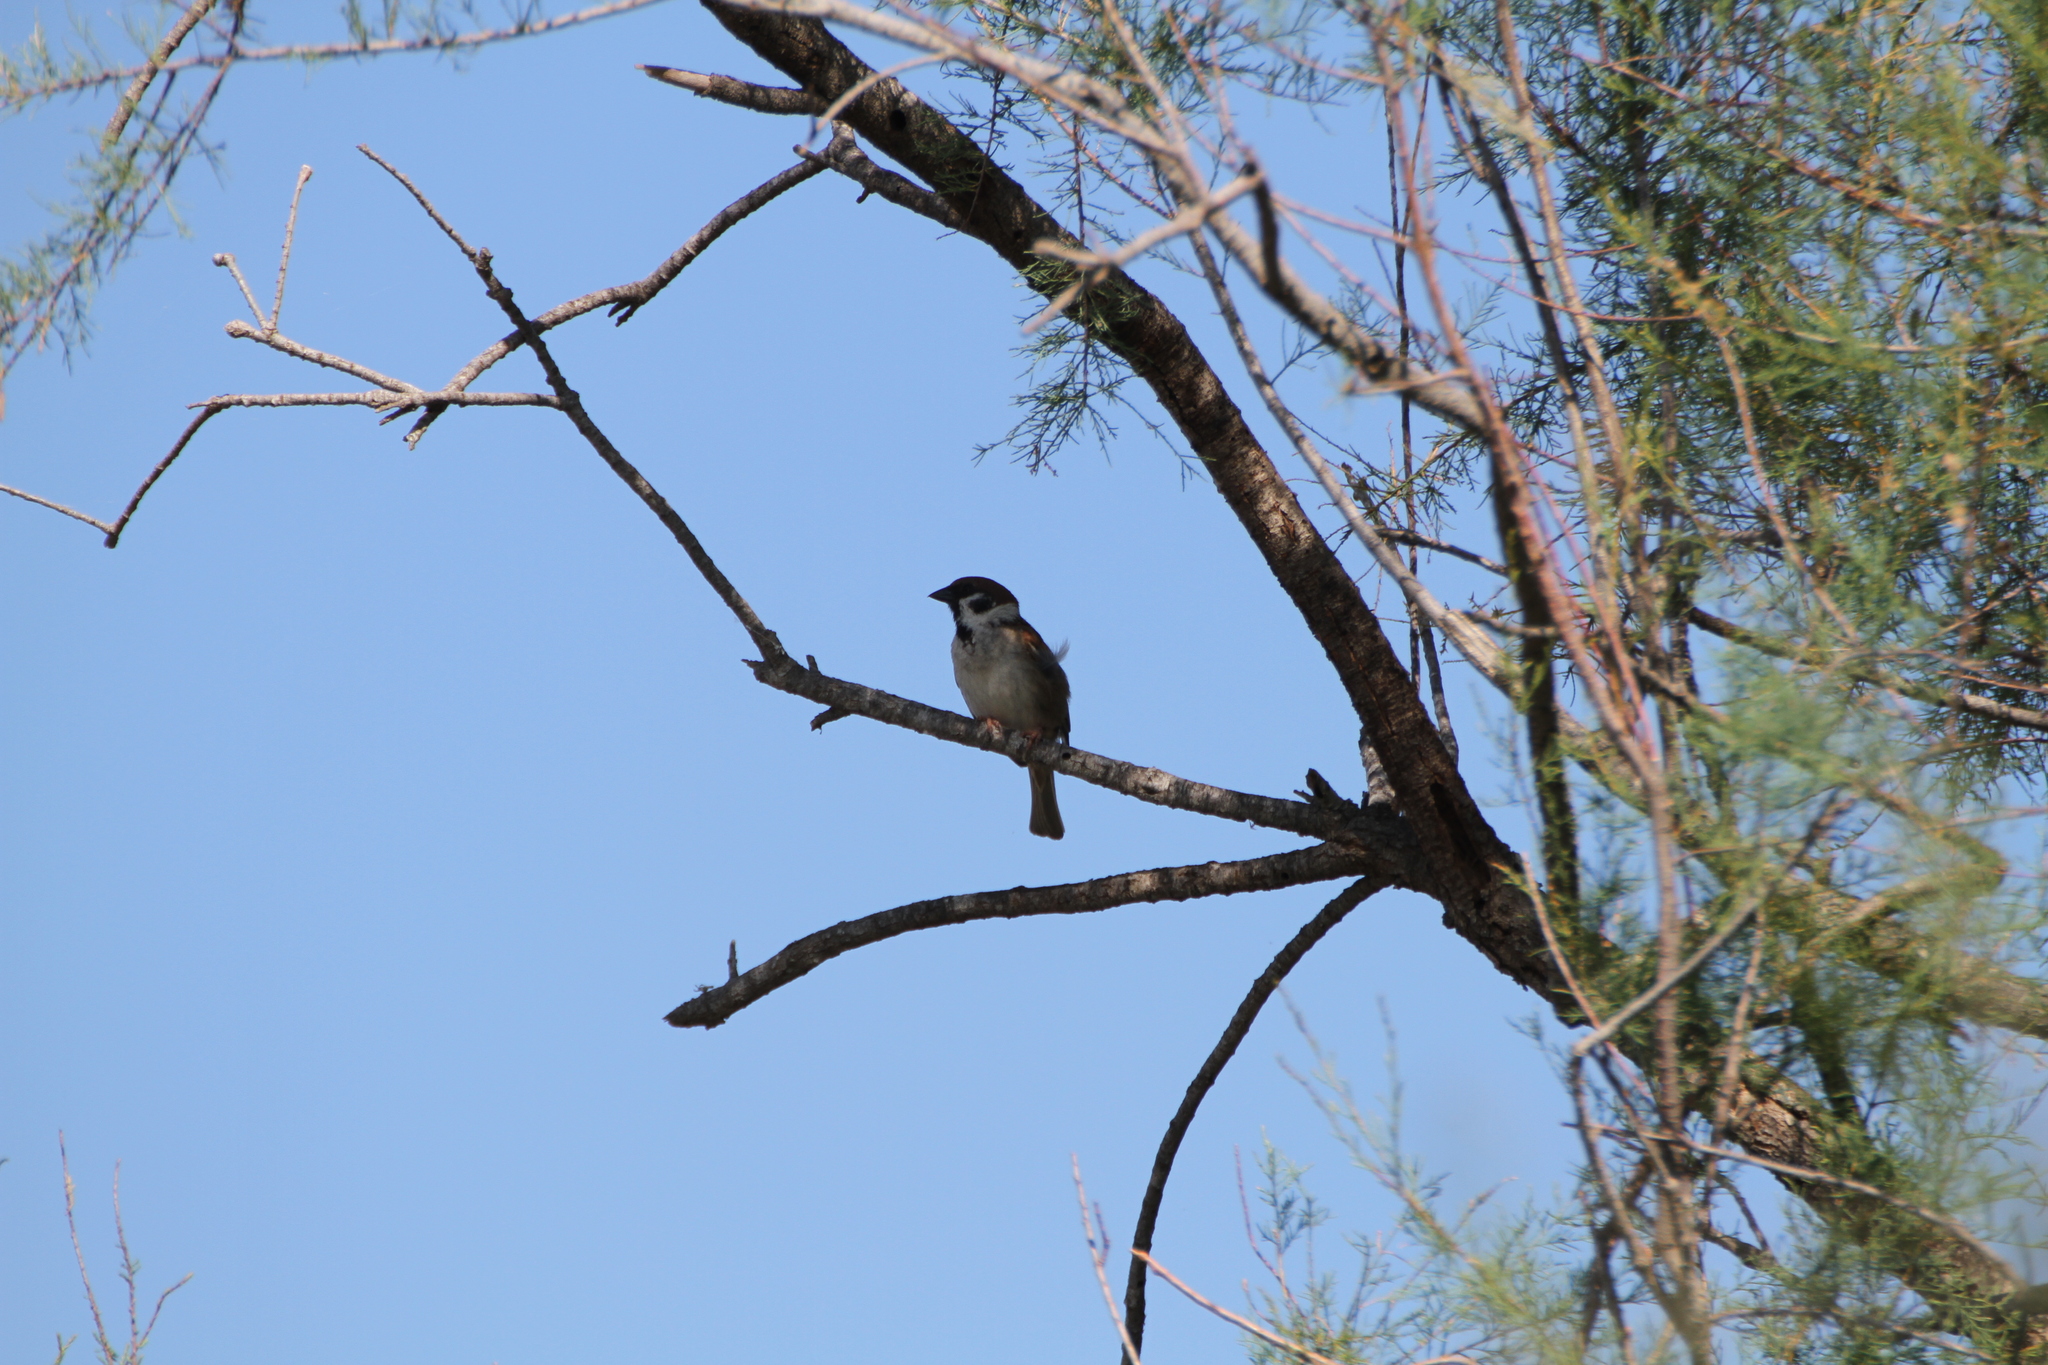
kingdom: Animalia
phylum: Chordata
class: Aves
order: Passeriformes
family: Passeridae
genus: Passer
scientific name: Passer montanus
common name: Eurasian tree sparrow
